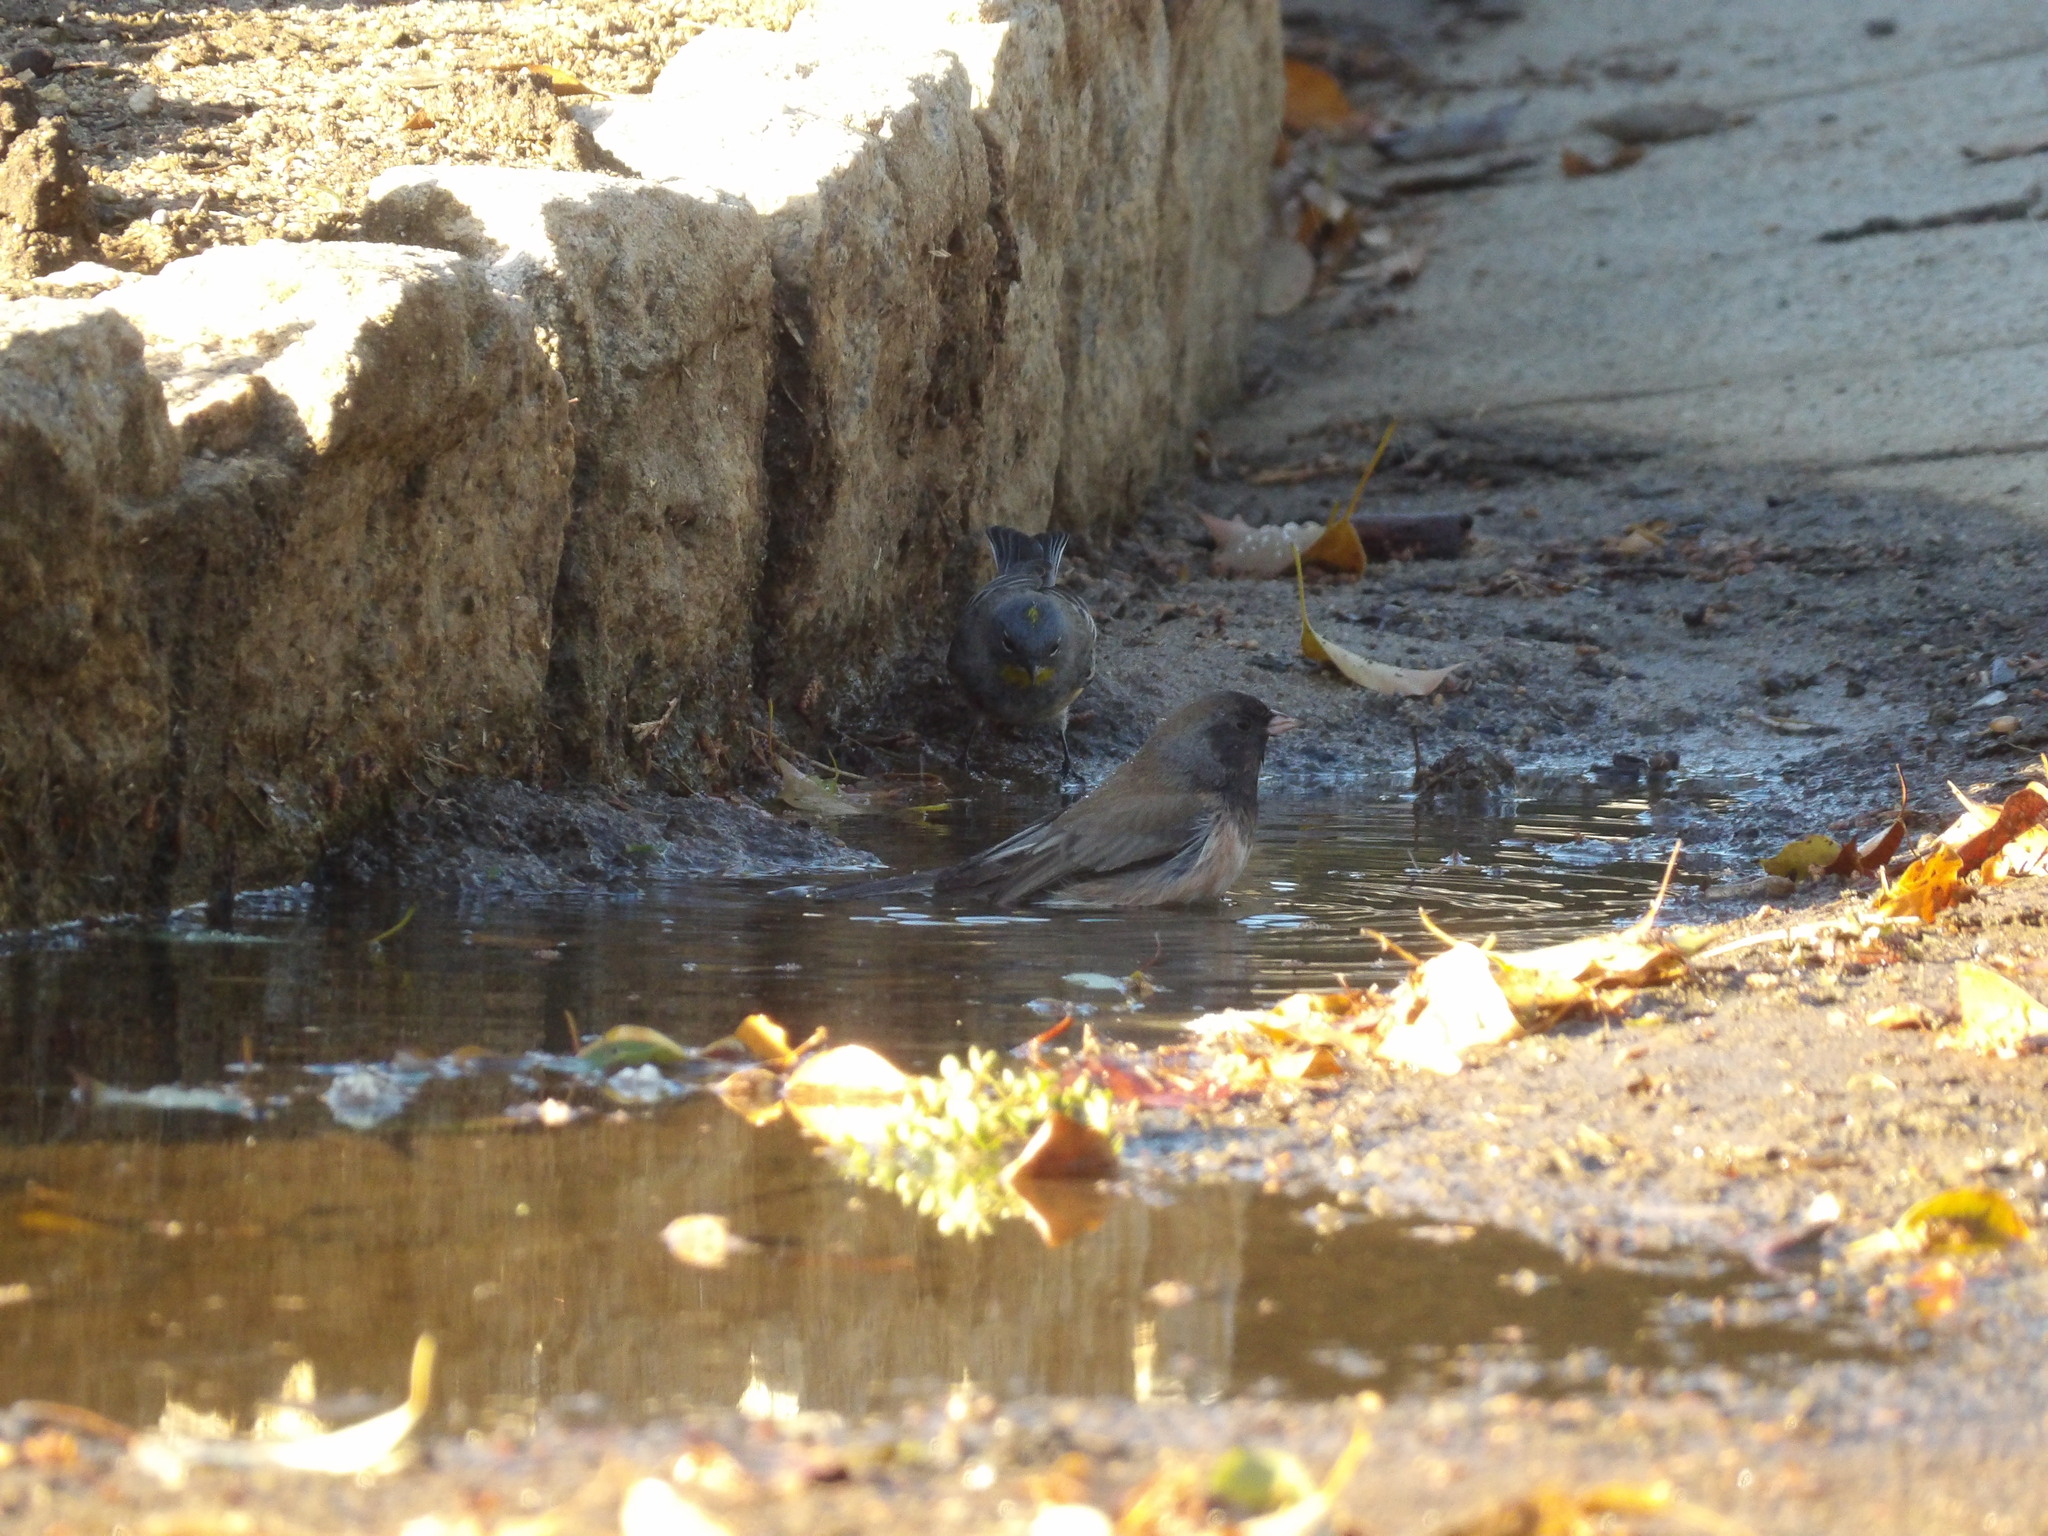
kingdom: Animalia
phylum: Chordata
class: Aves
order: Passeriformes
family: Passerellidae
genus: Junco
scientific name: Junco hyemalis
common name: Dark-eyed junco
